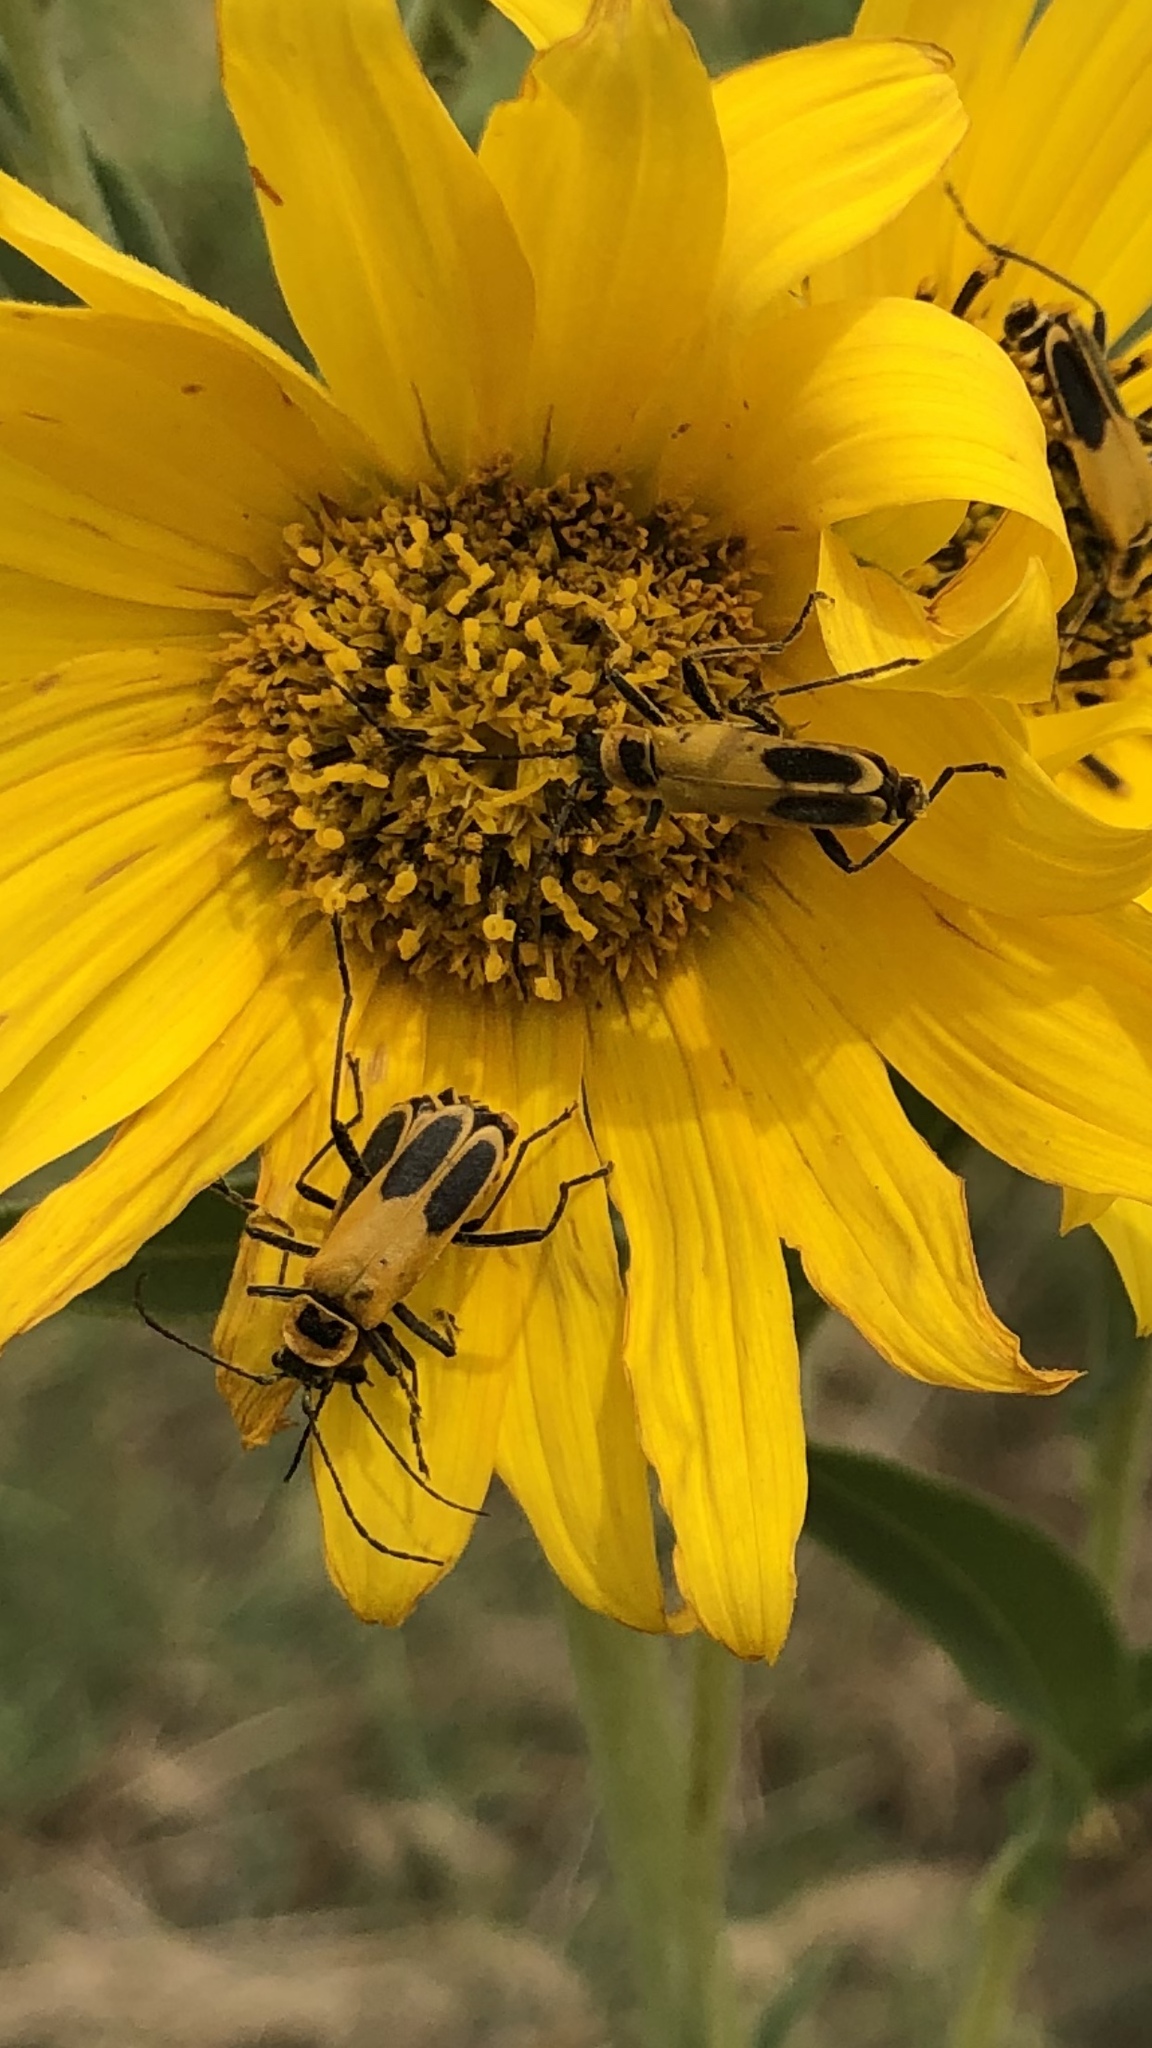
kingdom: Animalia
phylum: Arthropoda
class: Insecta
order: Coleoptera
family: Cantharidae
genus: Chauliognathus
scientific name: Chauliognathus pensylvanicus
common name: Goldenrod soldier beetle
